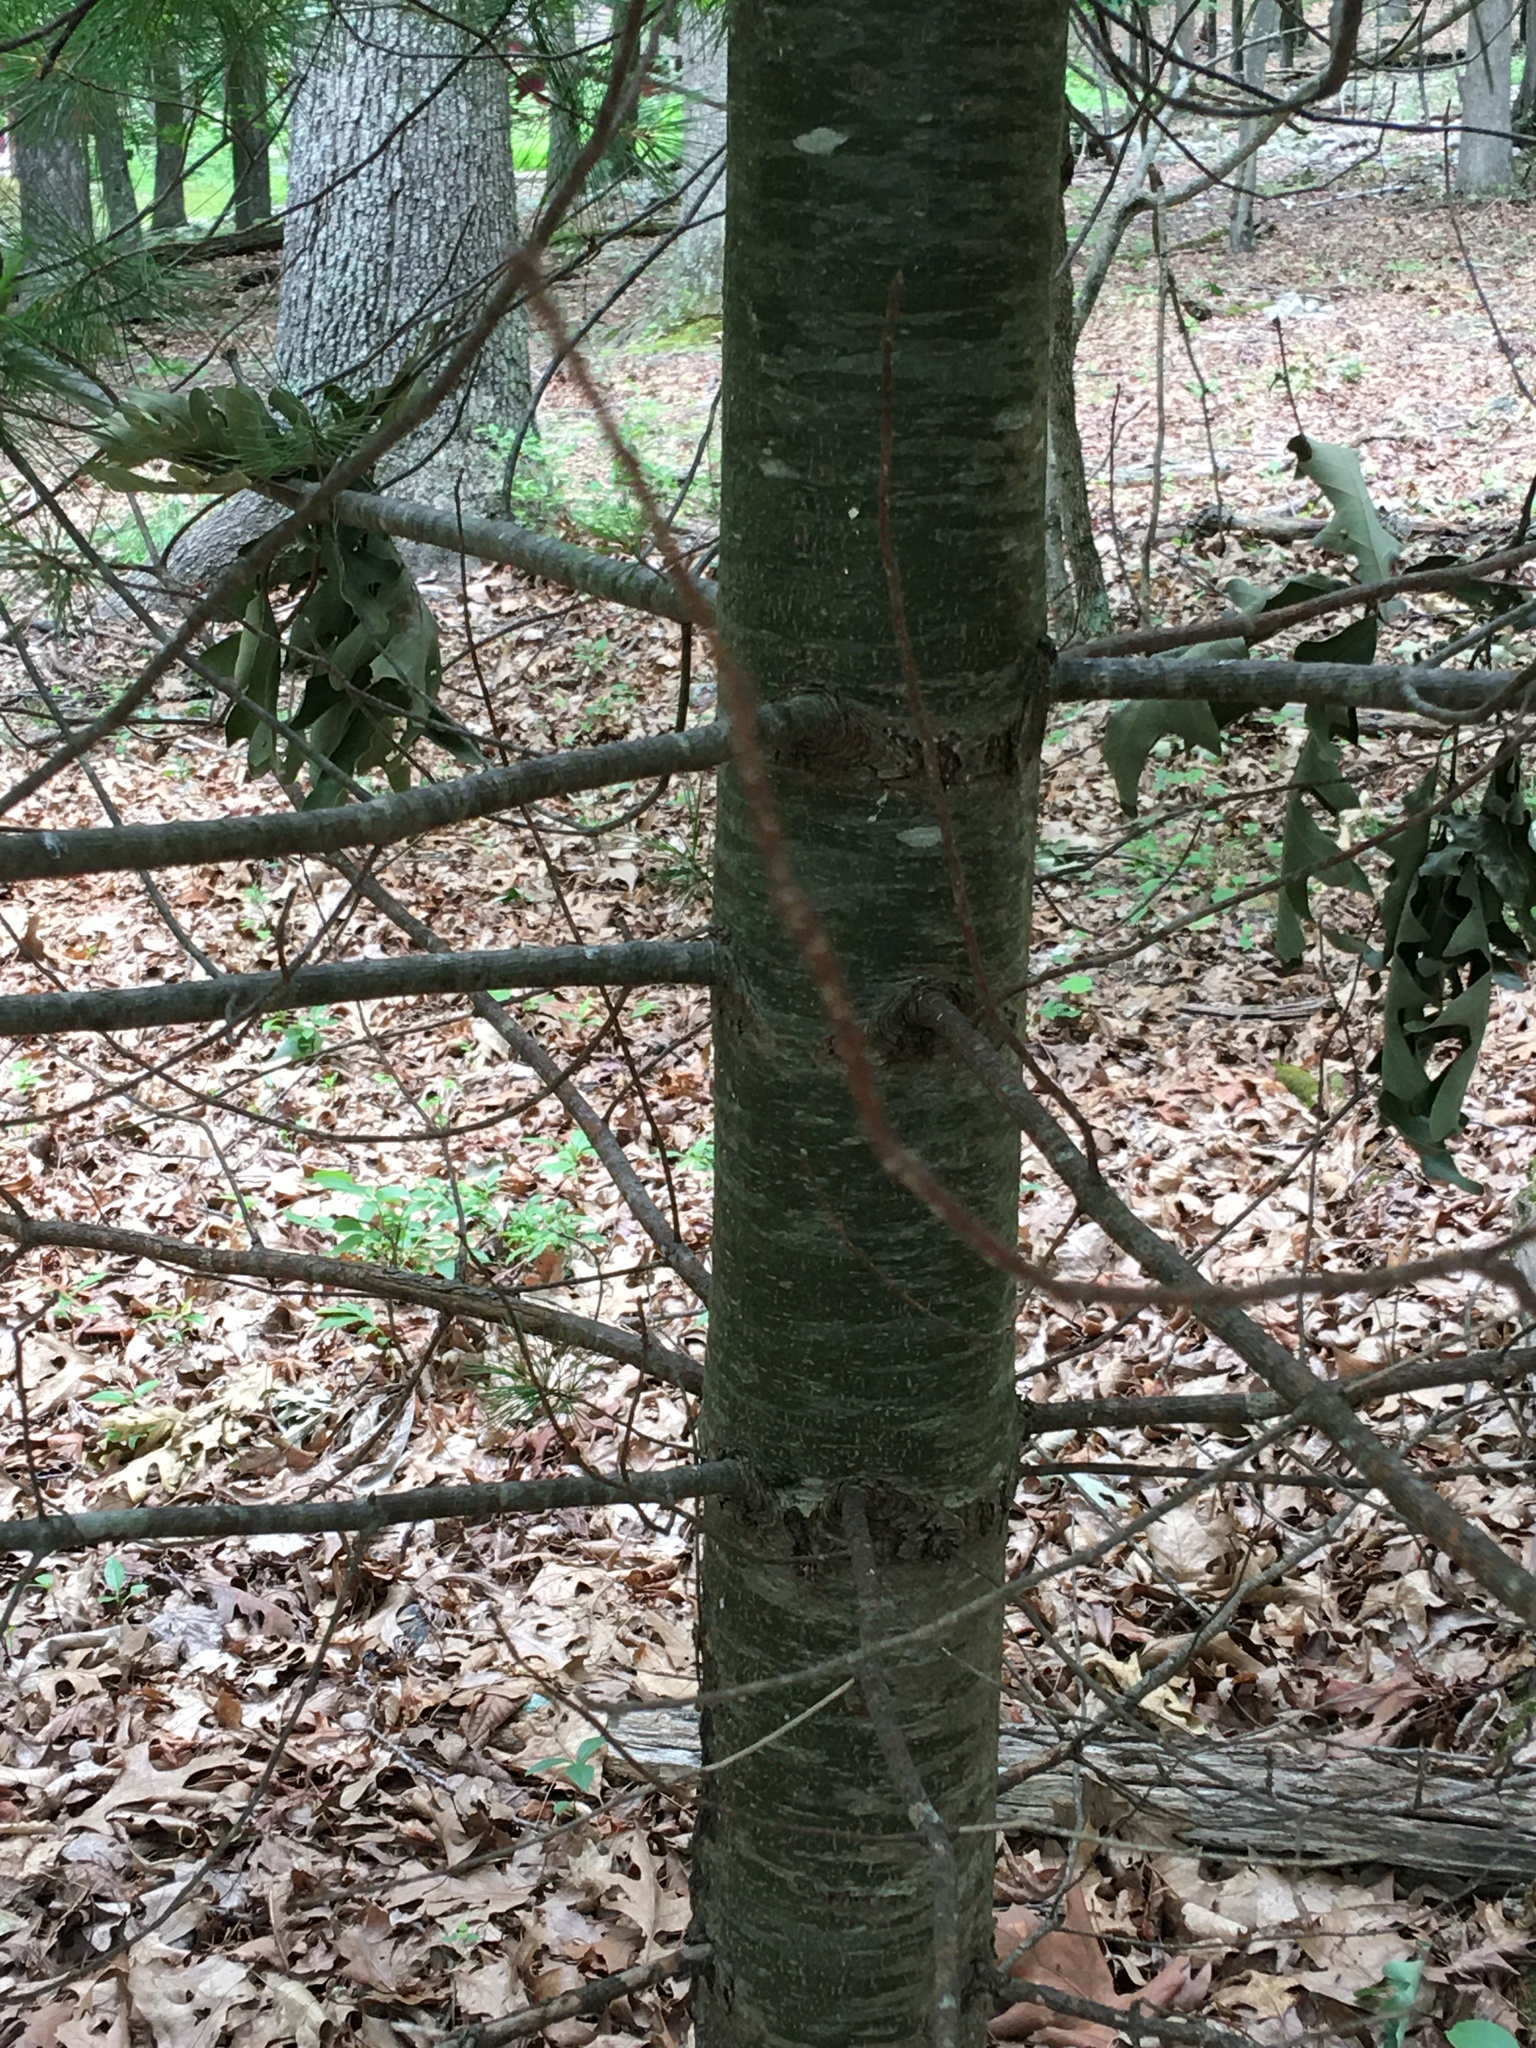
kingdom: Plantae
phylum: Tracheophyta
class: Pinopsida
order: Pinales
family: Pinaceae
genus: Pinus
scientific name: Pinus strobus
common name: Weymouth pine
